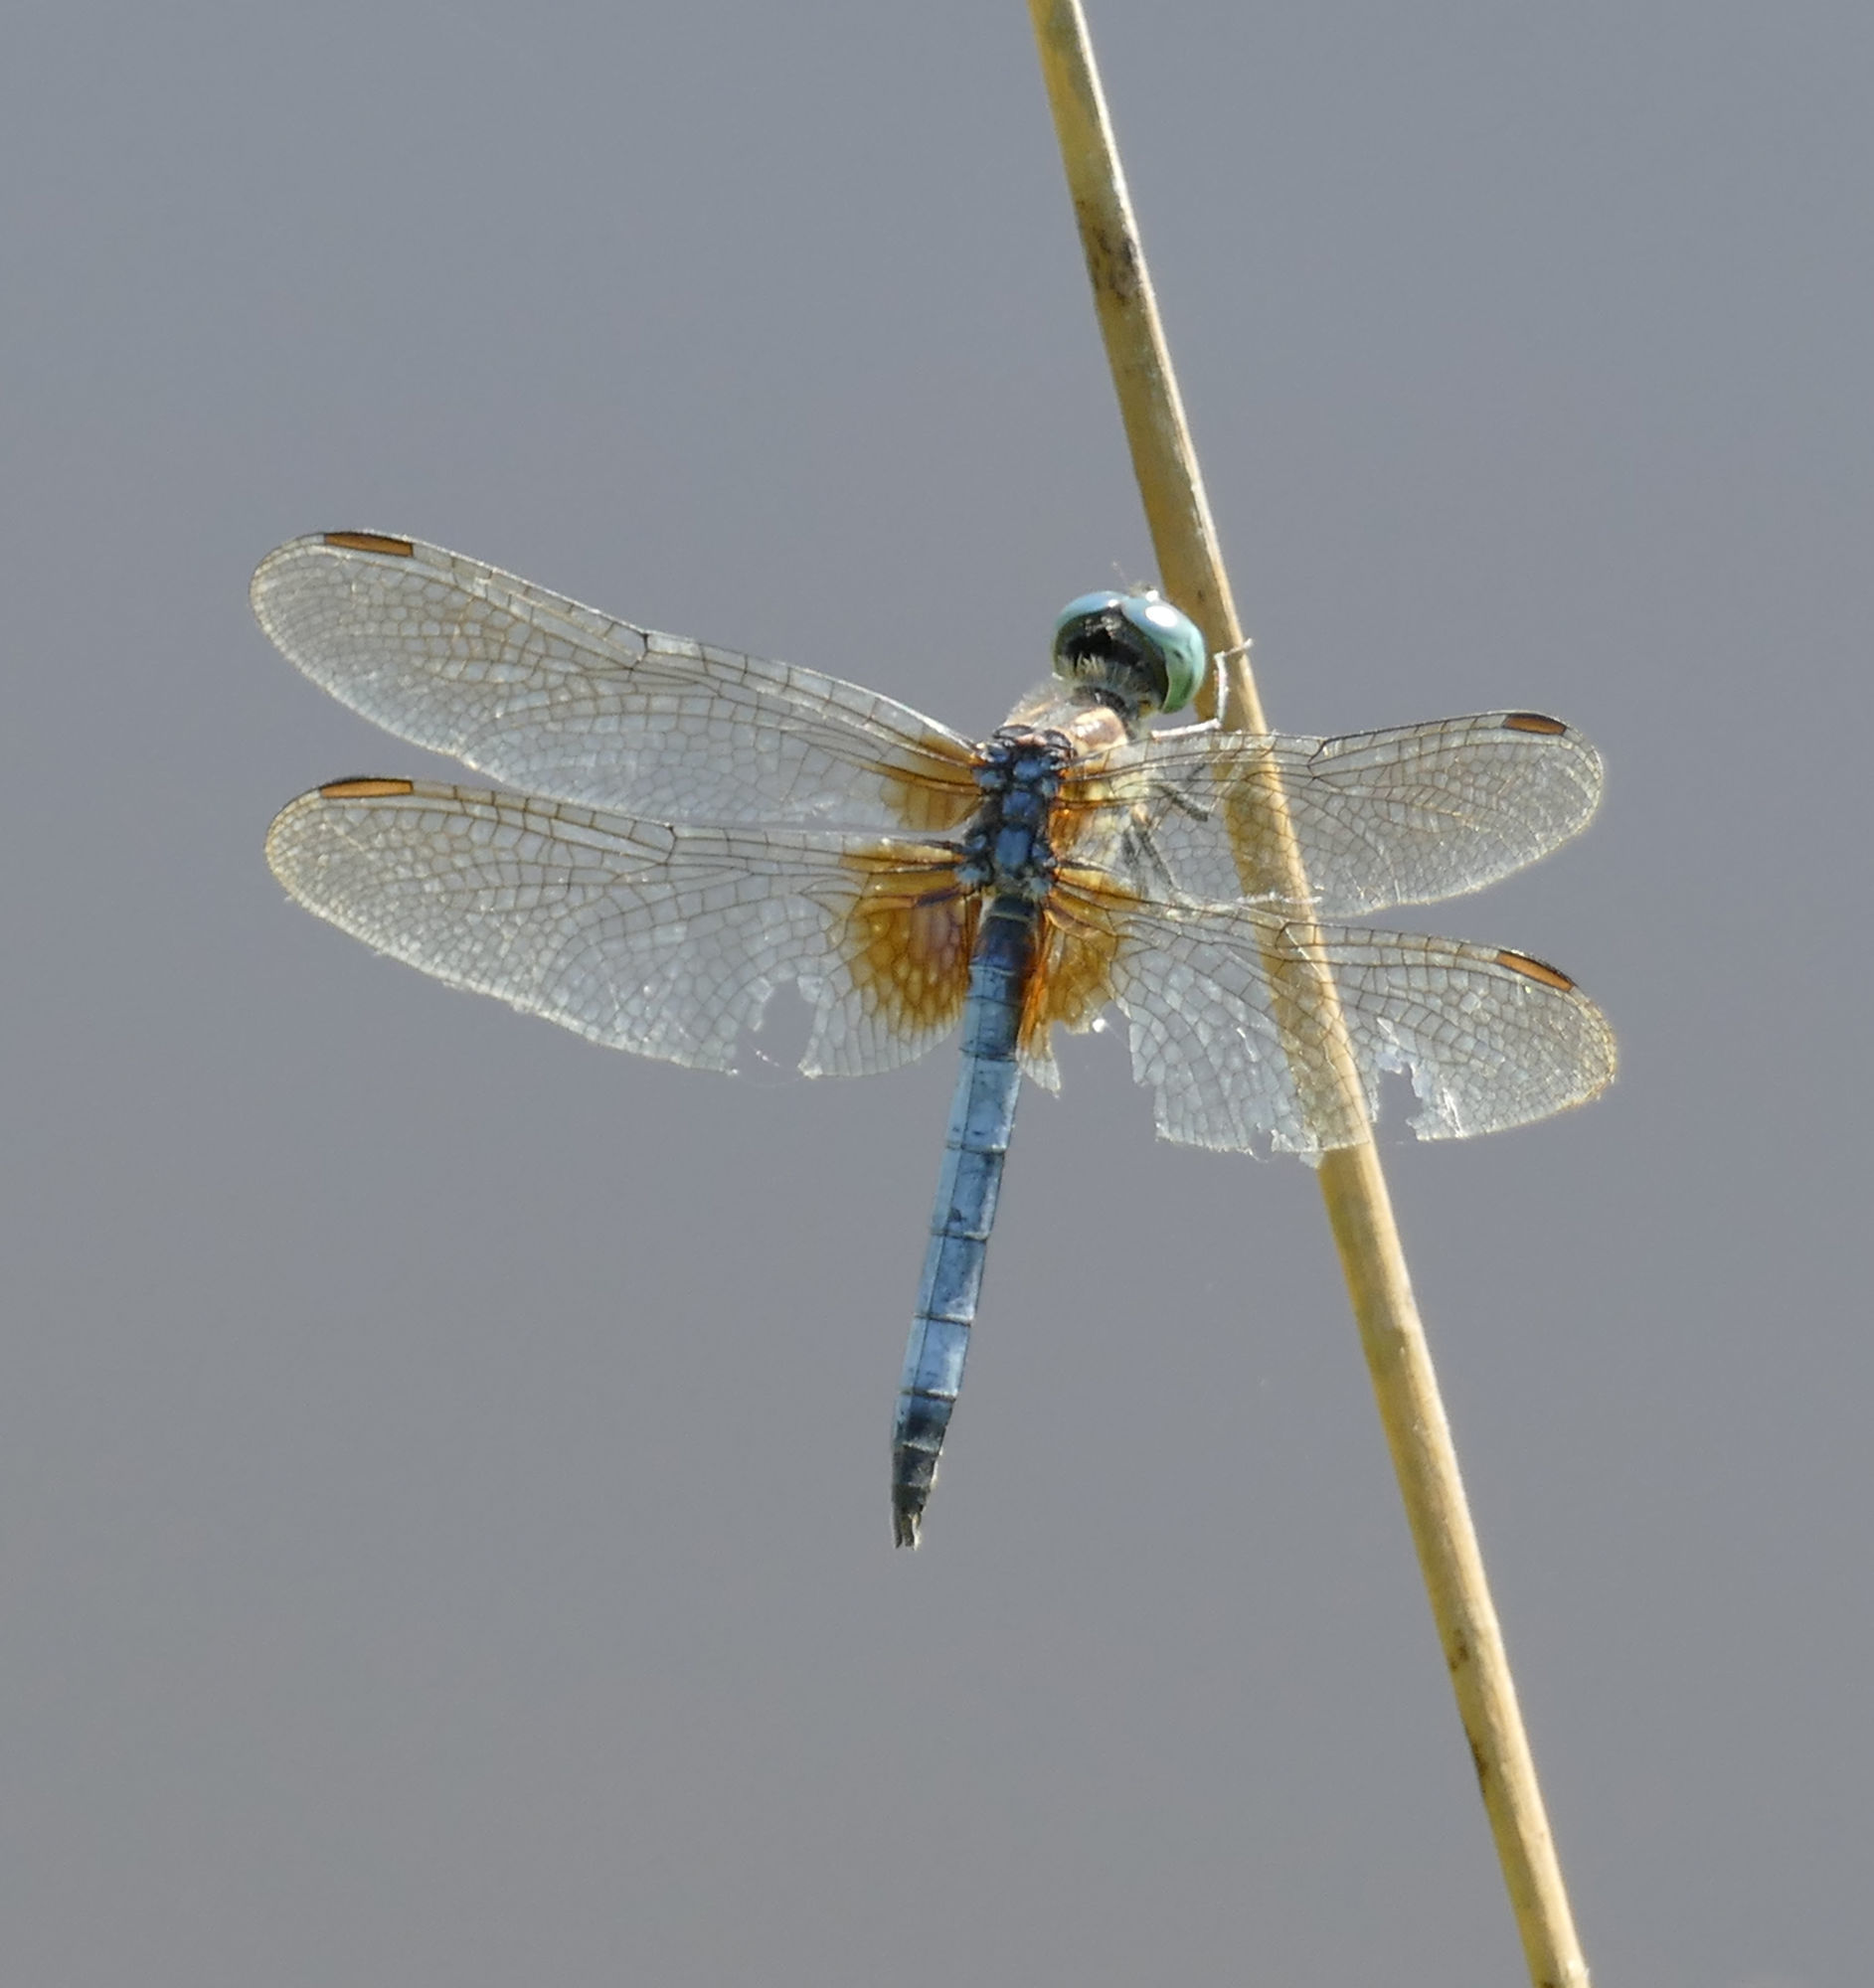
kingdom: Animalia
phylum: Arthropoda
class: Insecta
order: Odonata
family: Libellulidae
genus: Pachydiplax
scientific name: Pachydiplax longipennis
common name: Blue dasher
